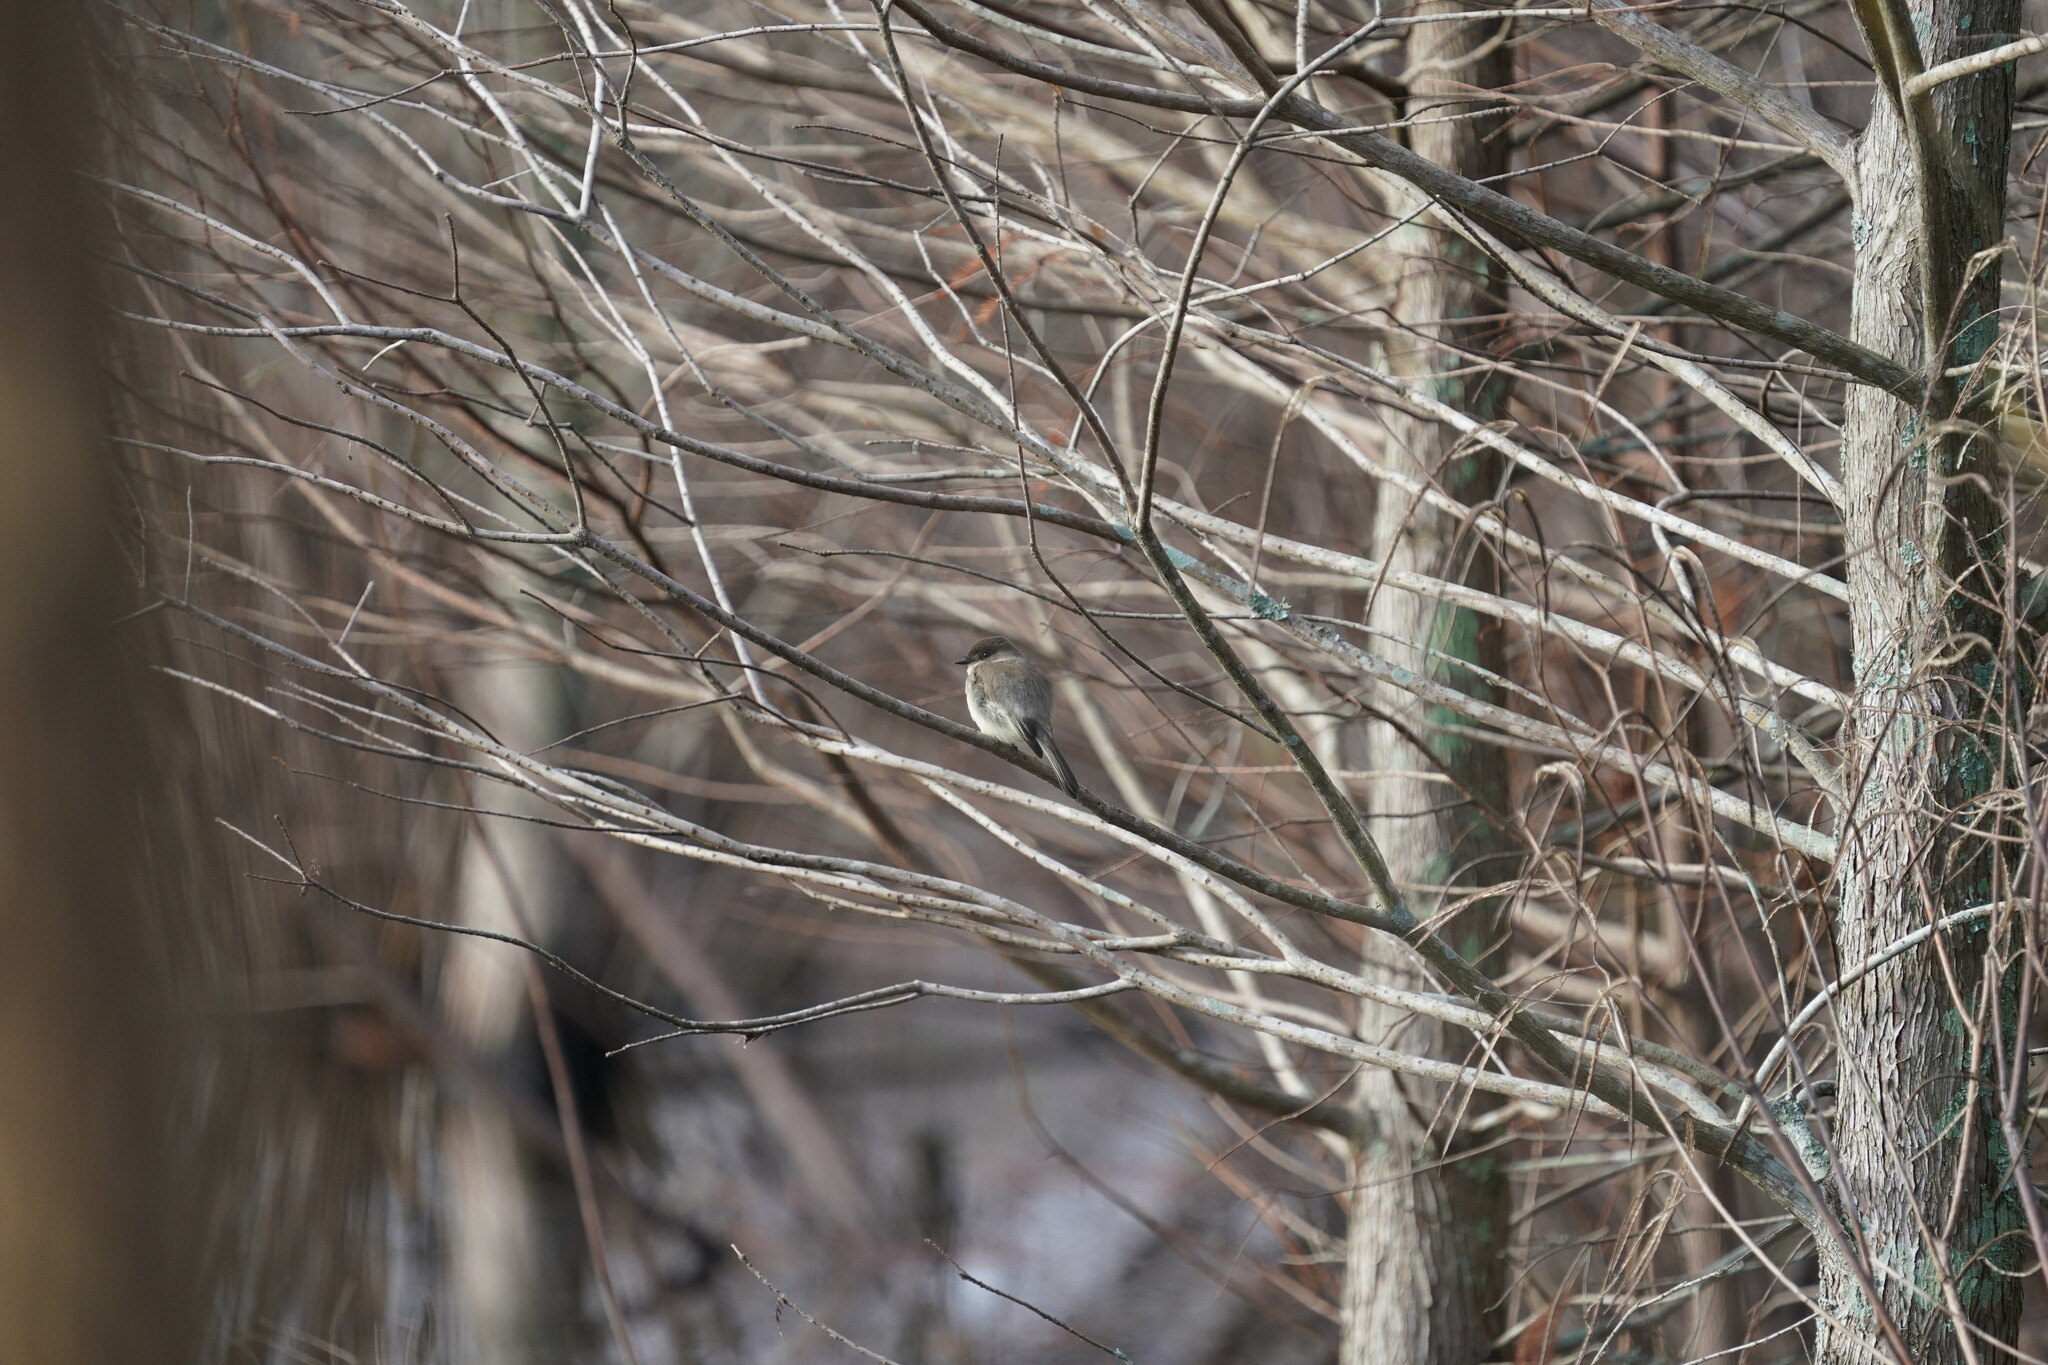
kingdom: Animalia
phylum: Chordata
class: Aves
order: Passeriformes
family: Tyrannidae
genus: Sayornis
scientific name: Sayornis phoebe
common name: Eastern phoebe
